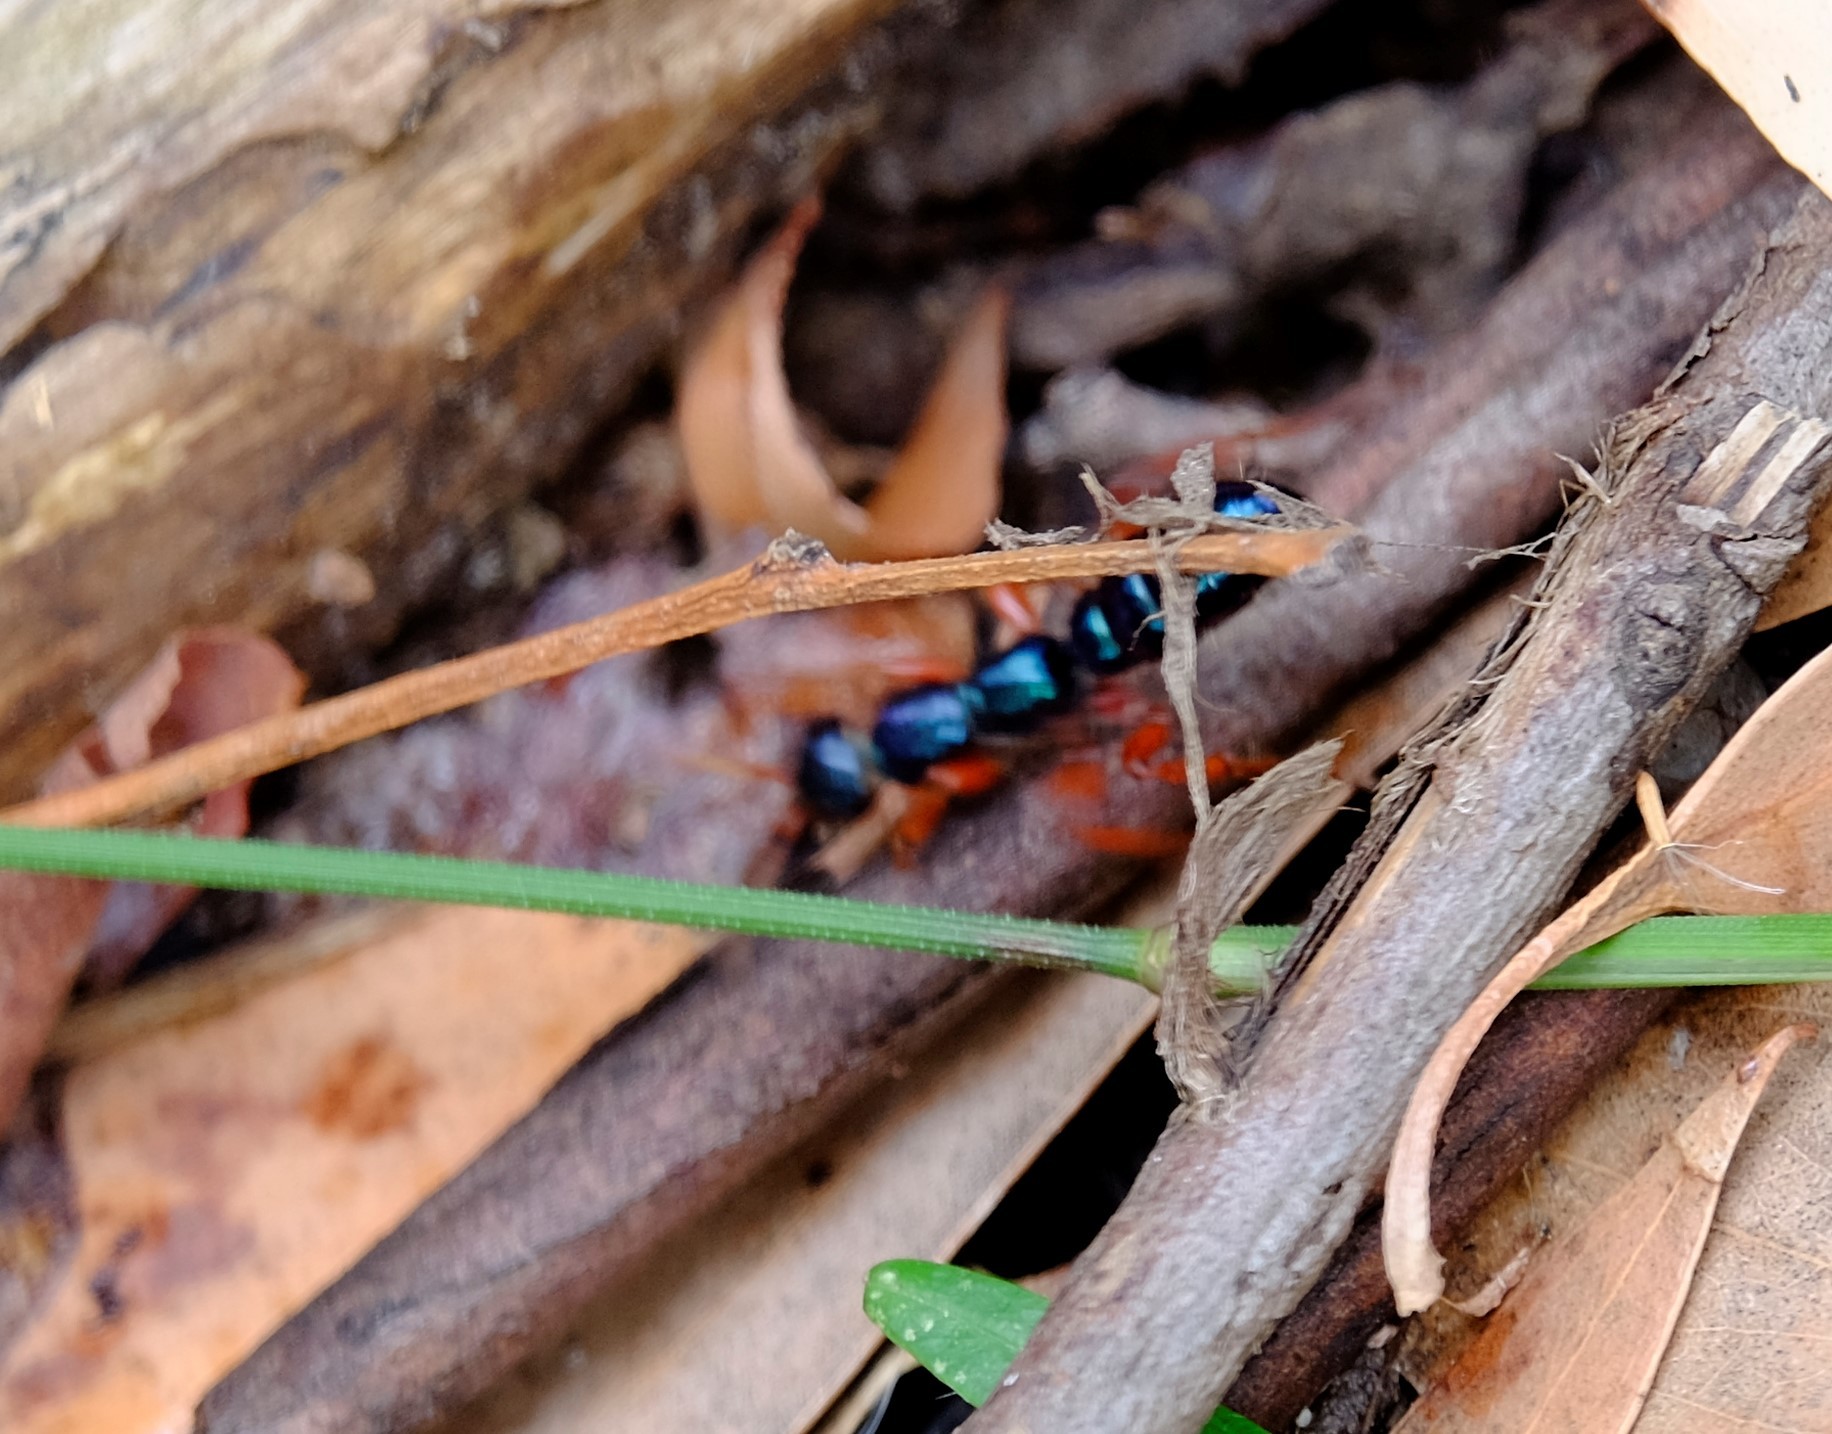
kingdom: Animalia
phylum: Arthropoda
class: Insecta
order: Hymenoptera
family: Tiphiidae
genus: Diamma
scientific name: Diamma
